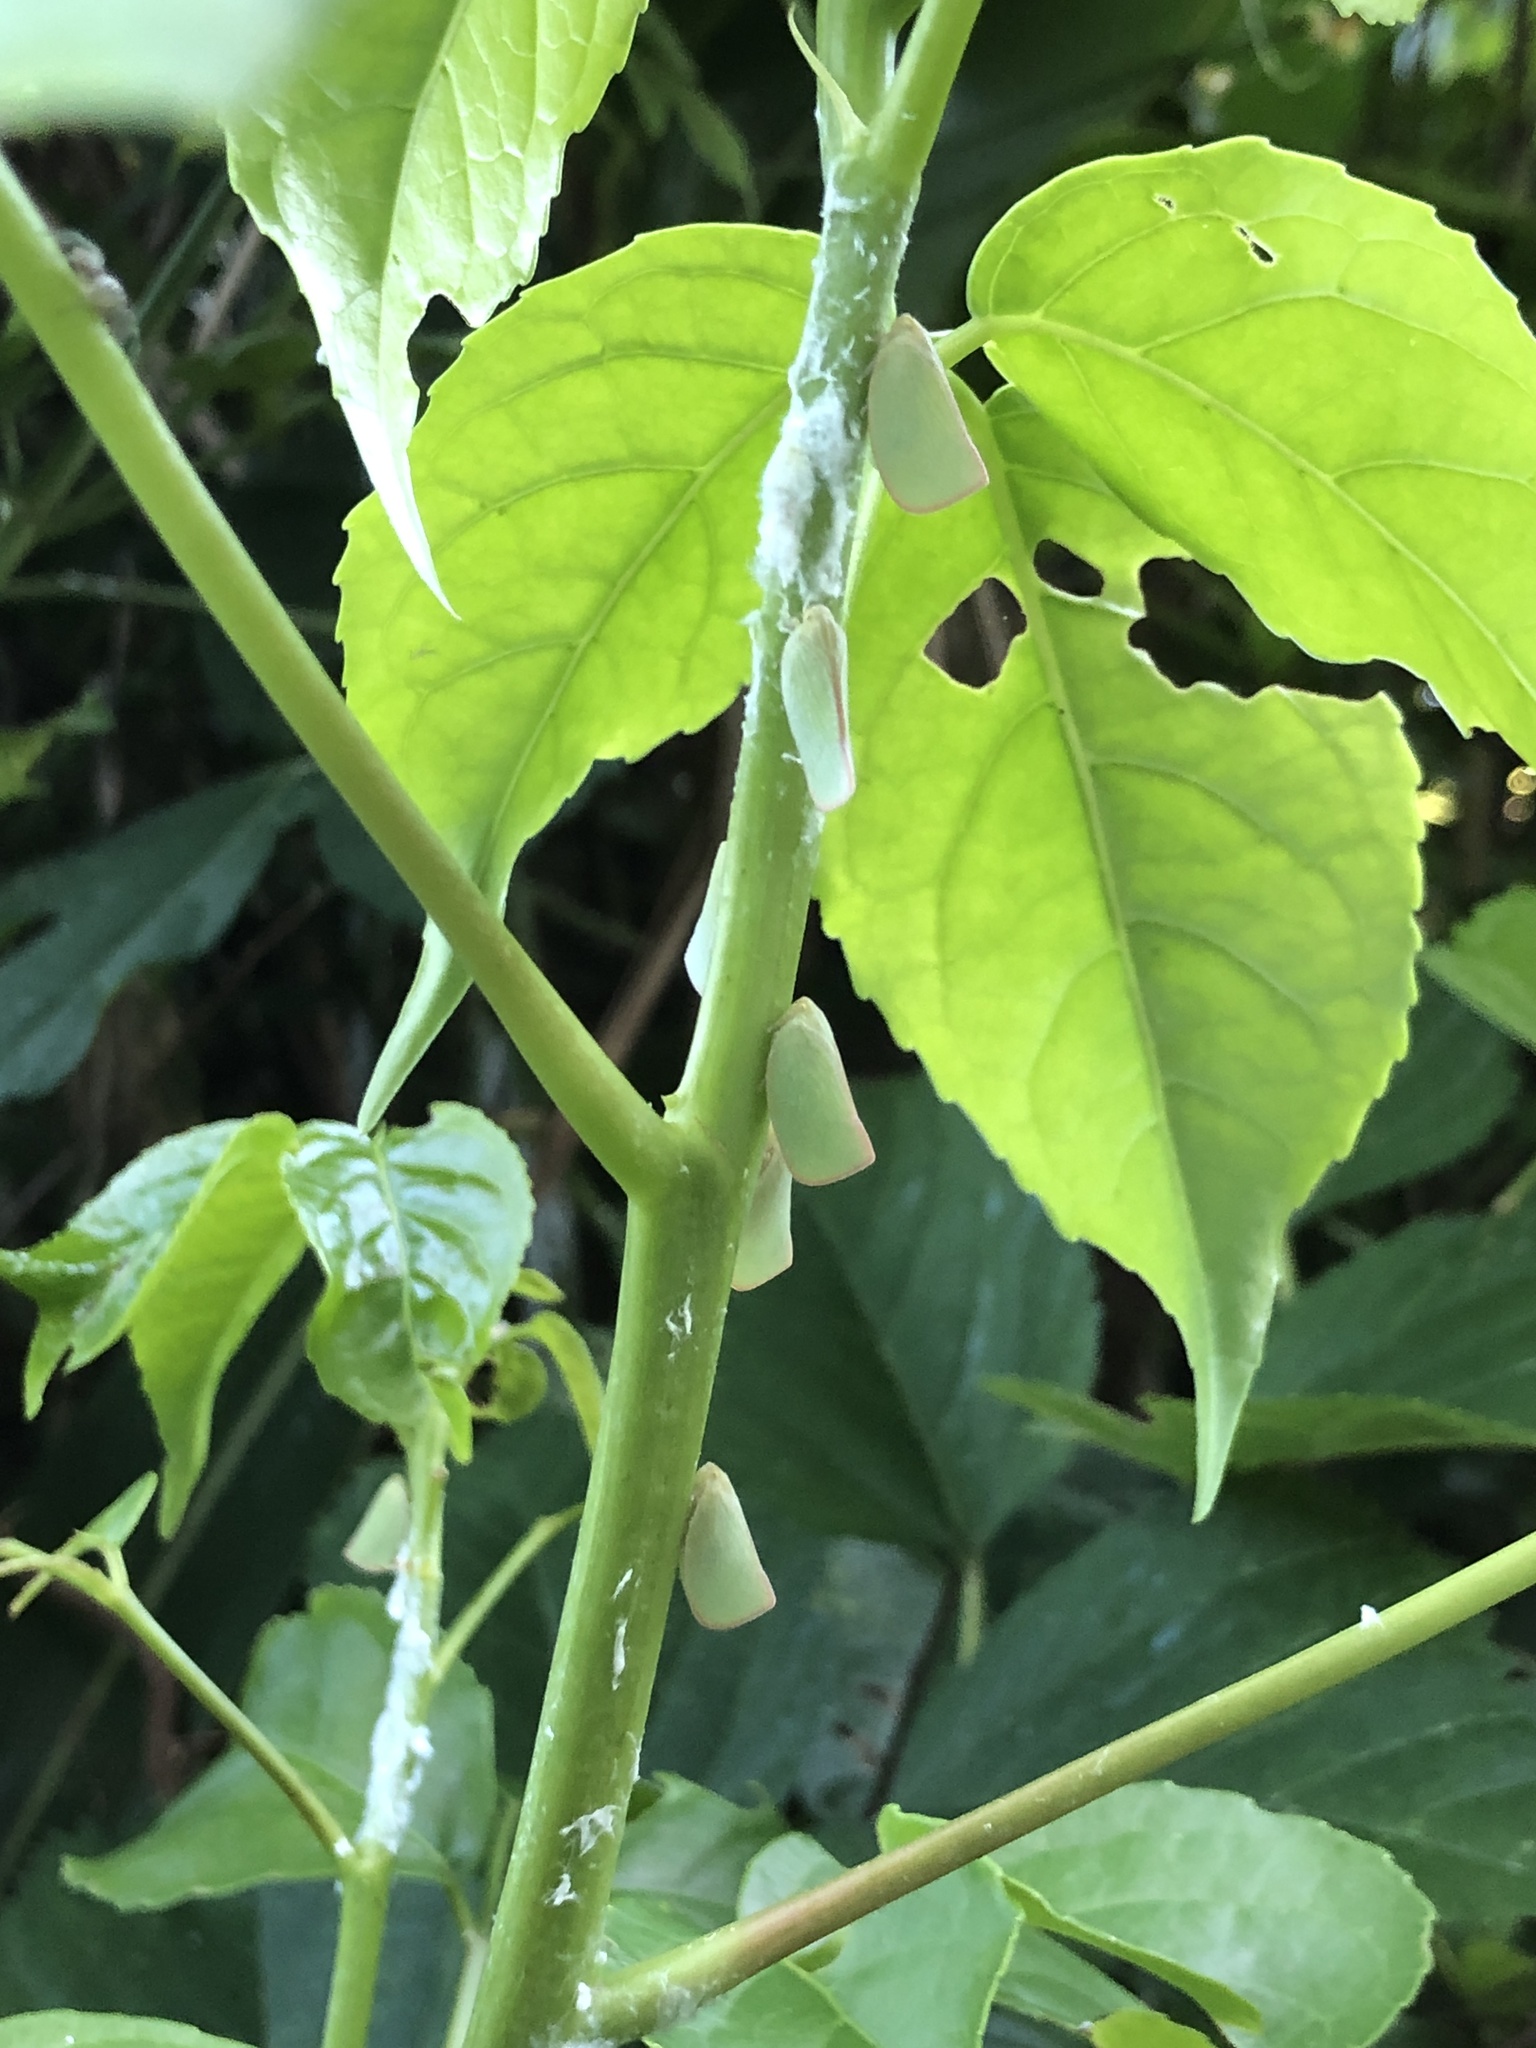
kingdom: Animalia
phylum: Arthropoda
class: Insecta
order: Hemiptera
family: Flatidae
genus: Geisha
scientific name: Geisha distinctissima
